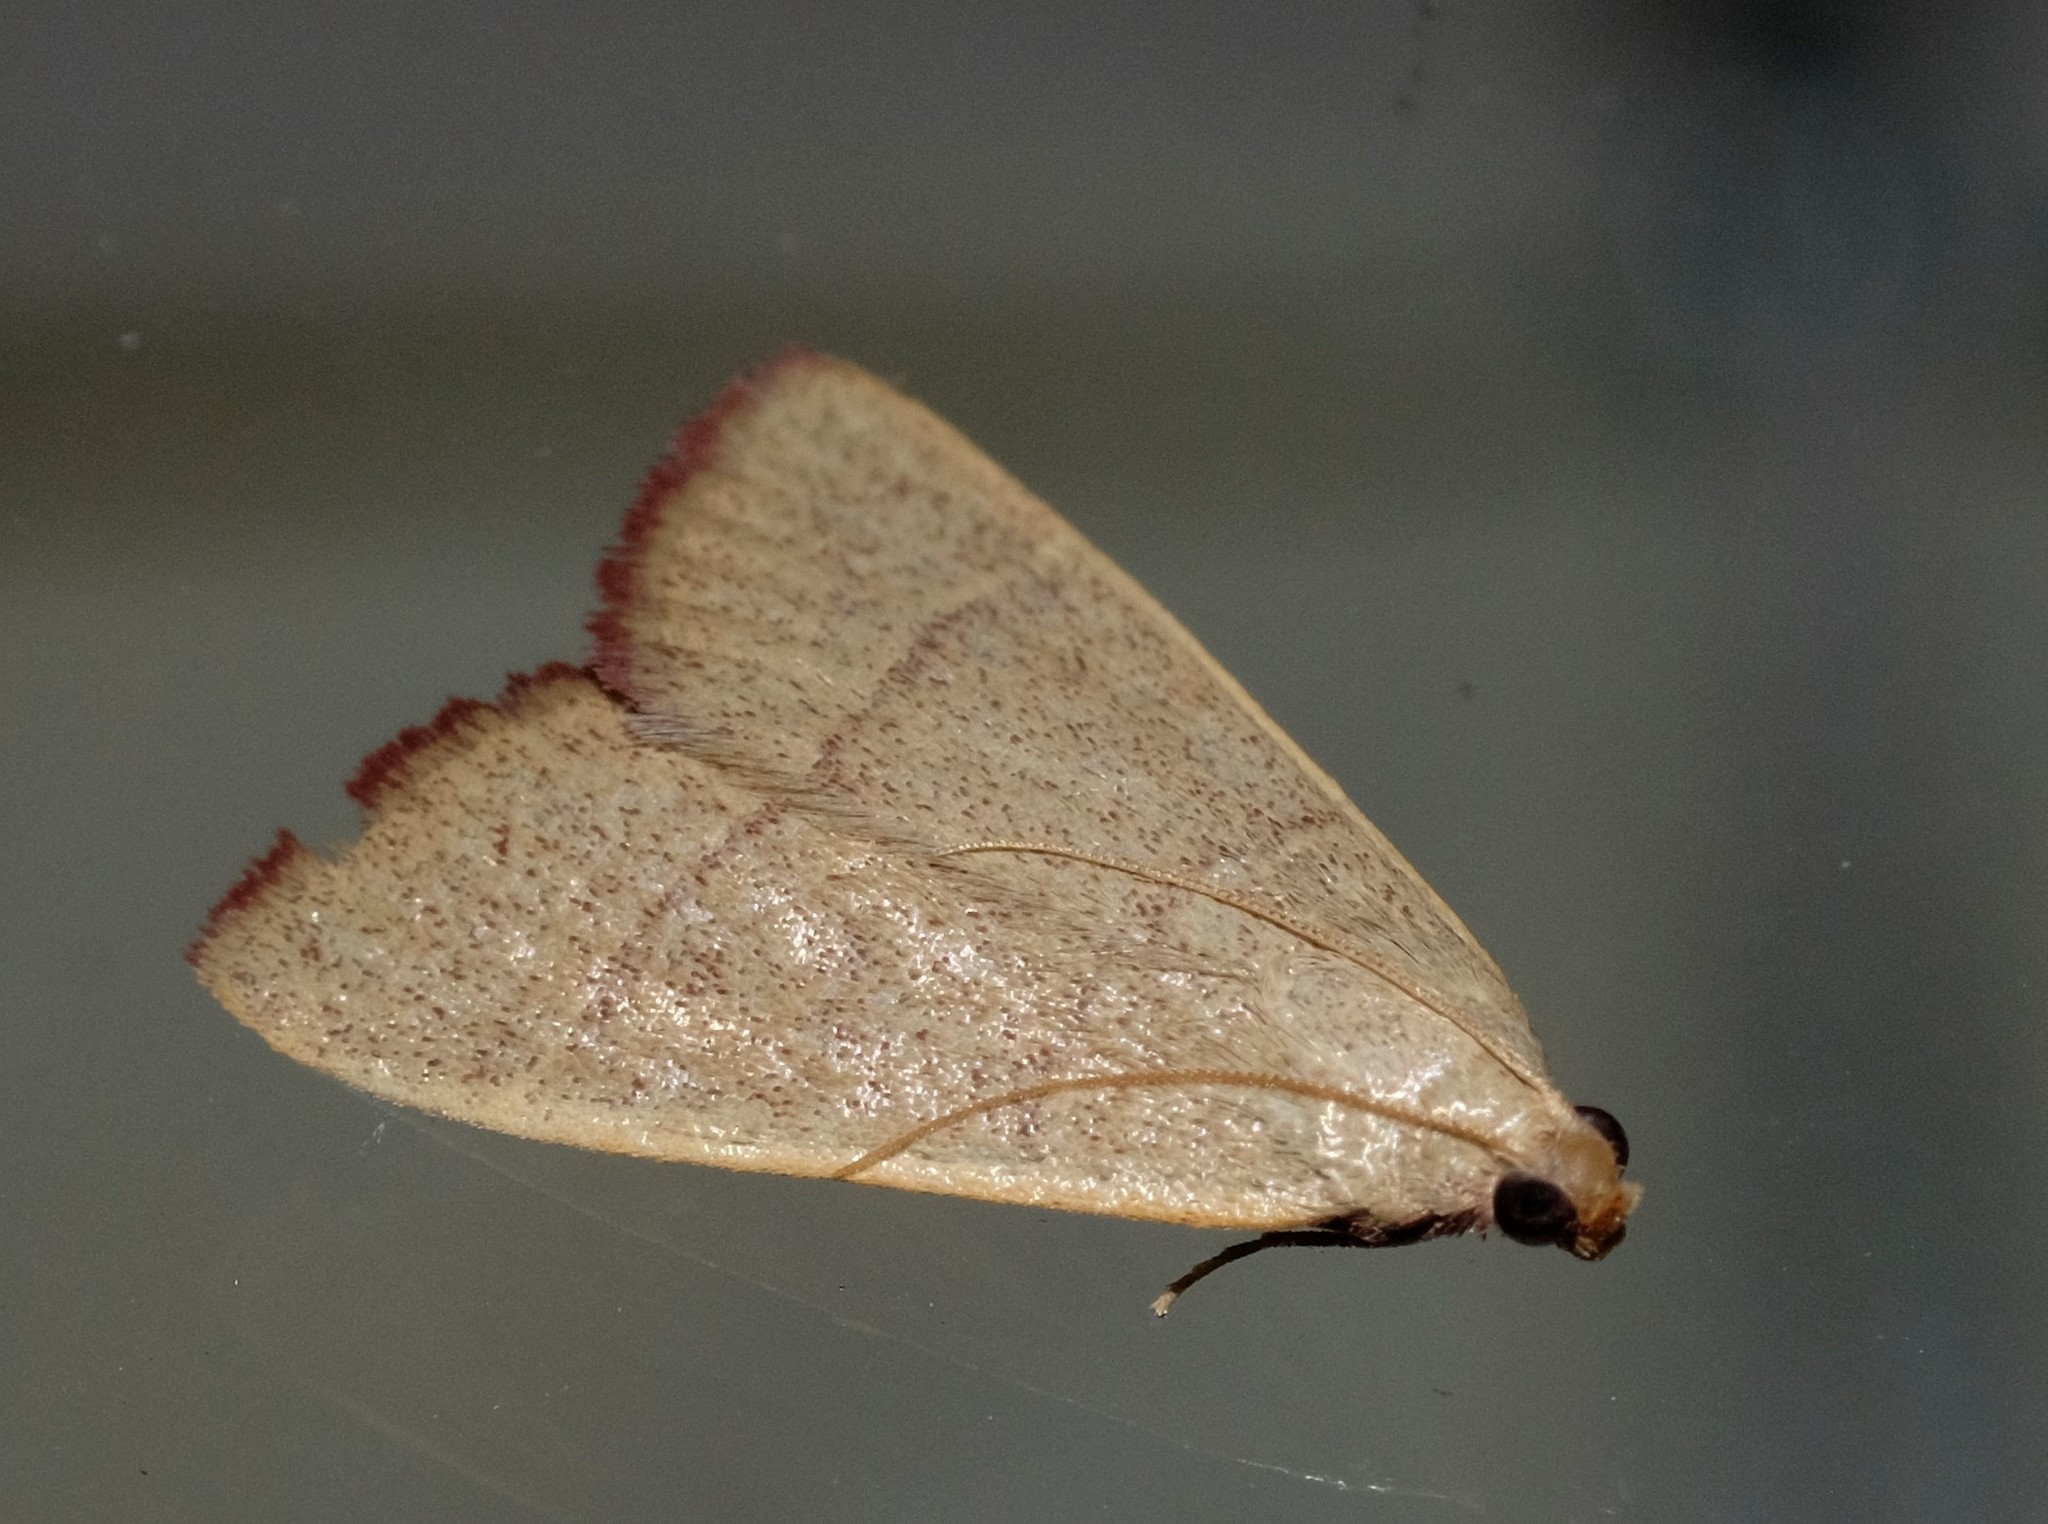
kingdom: Animalia
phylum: Arthropoda
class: Insecta
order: Lepidoptera
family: Pyralidae
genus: Hypsopygia
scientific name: Hypsopygia
